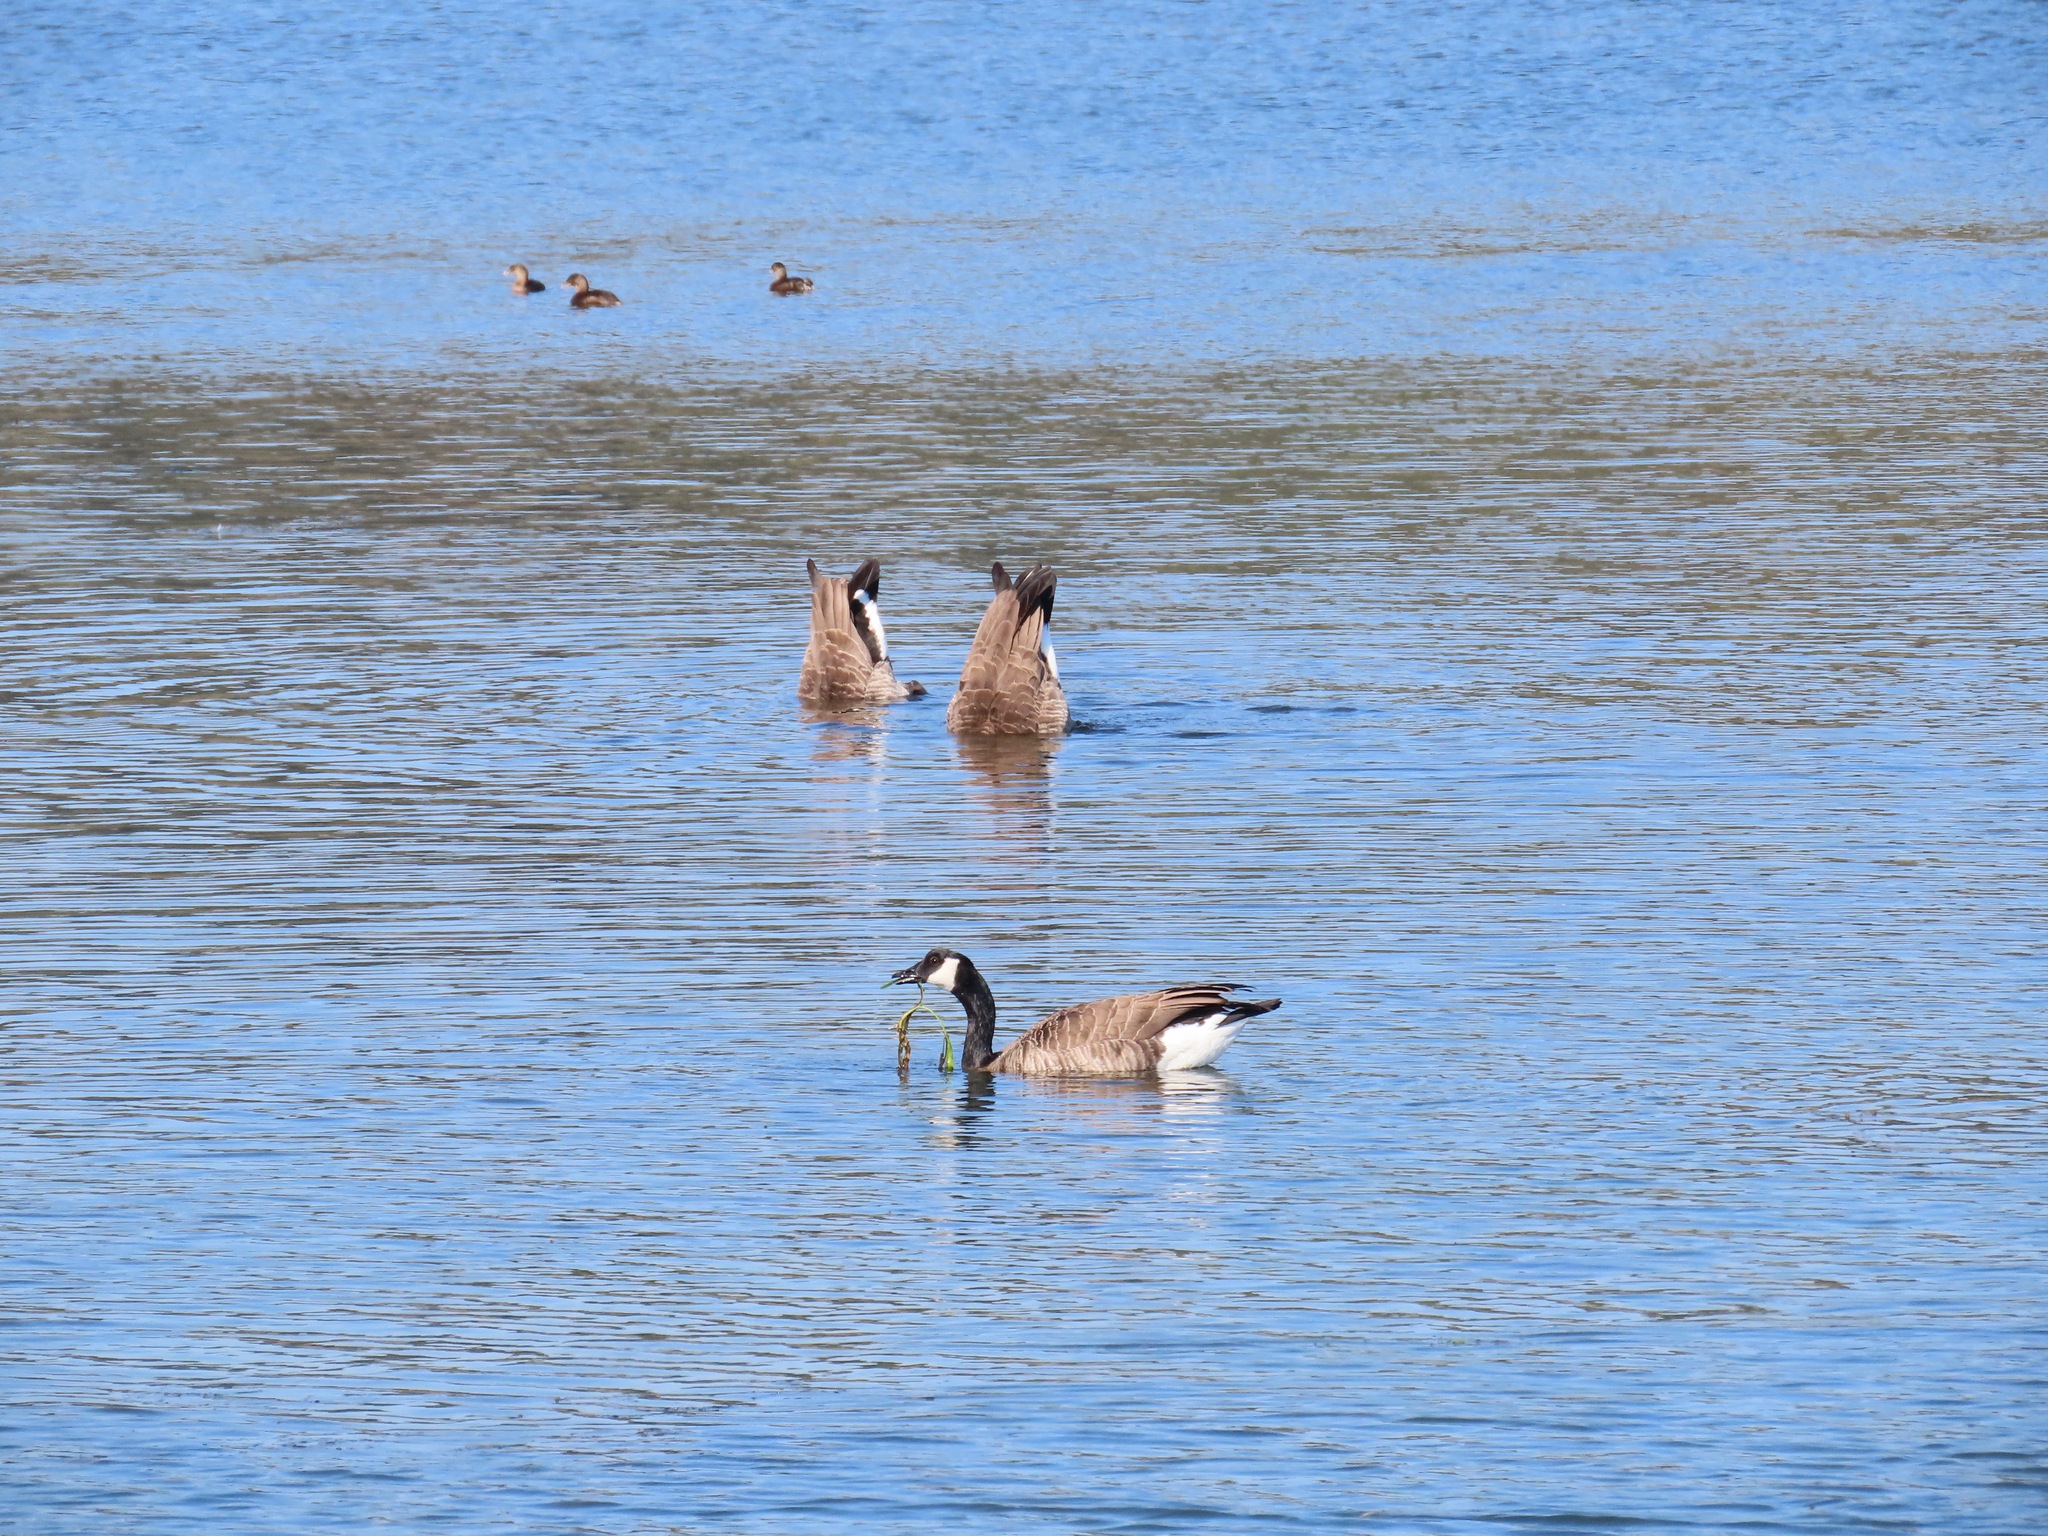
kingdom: Animalia
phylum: Chordata
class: Aves
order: Anseriformes
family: Anatidae
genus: Branta
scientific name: Branta canadensis
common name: Canada goose
